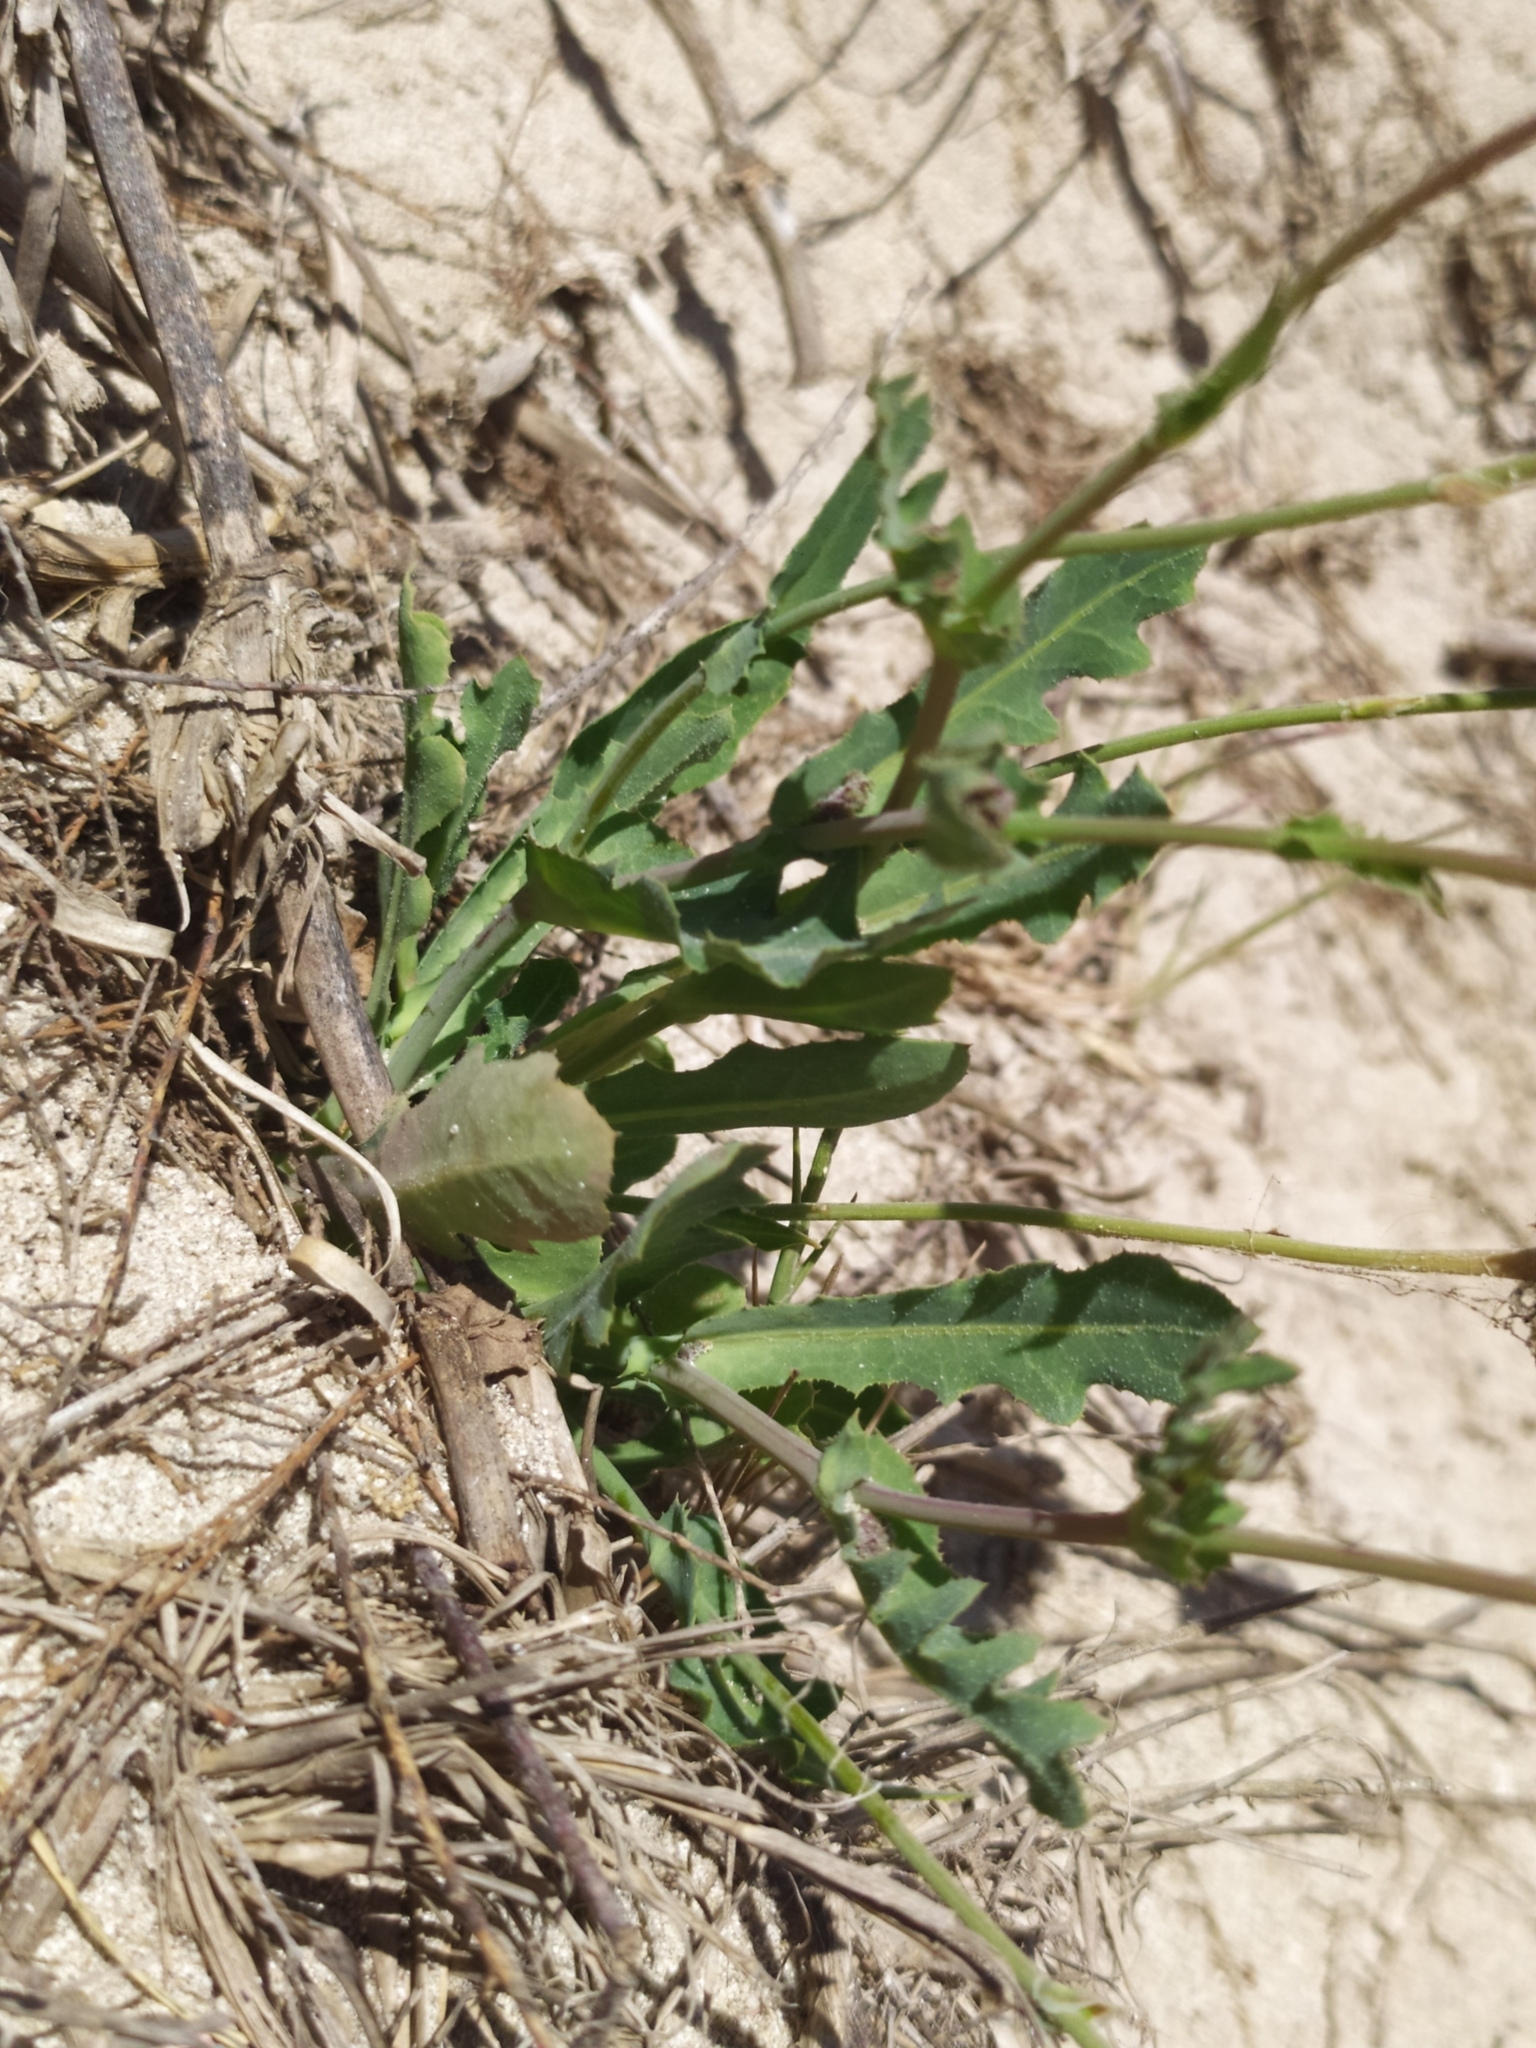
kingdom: Plantae
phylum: Tracheophyta
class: Magnoliopsida
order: Asterales
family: Asteraceae
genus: Reichardia
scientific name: Reichardia tingitana
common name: Reichardia
